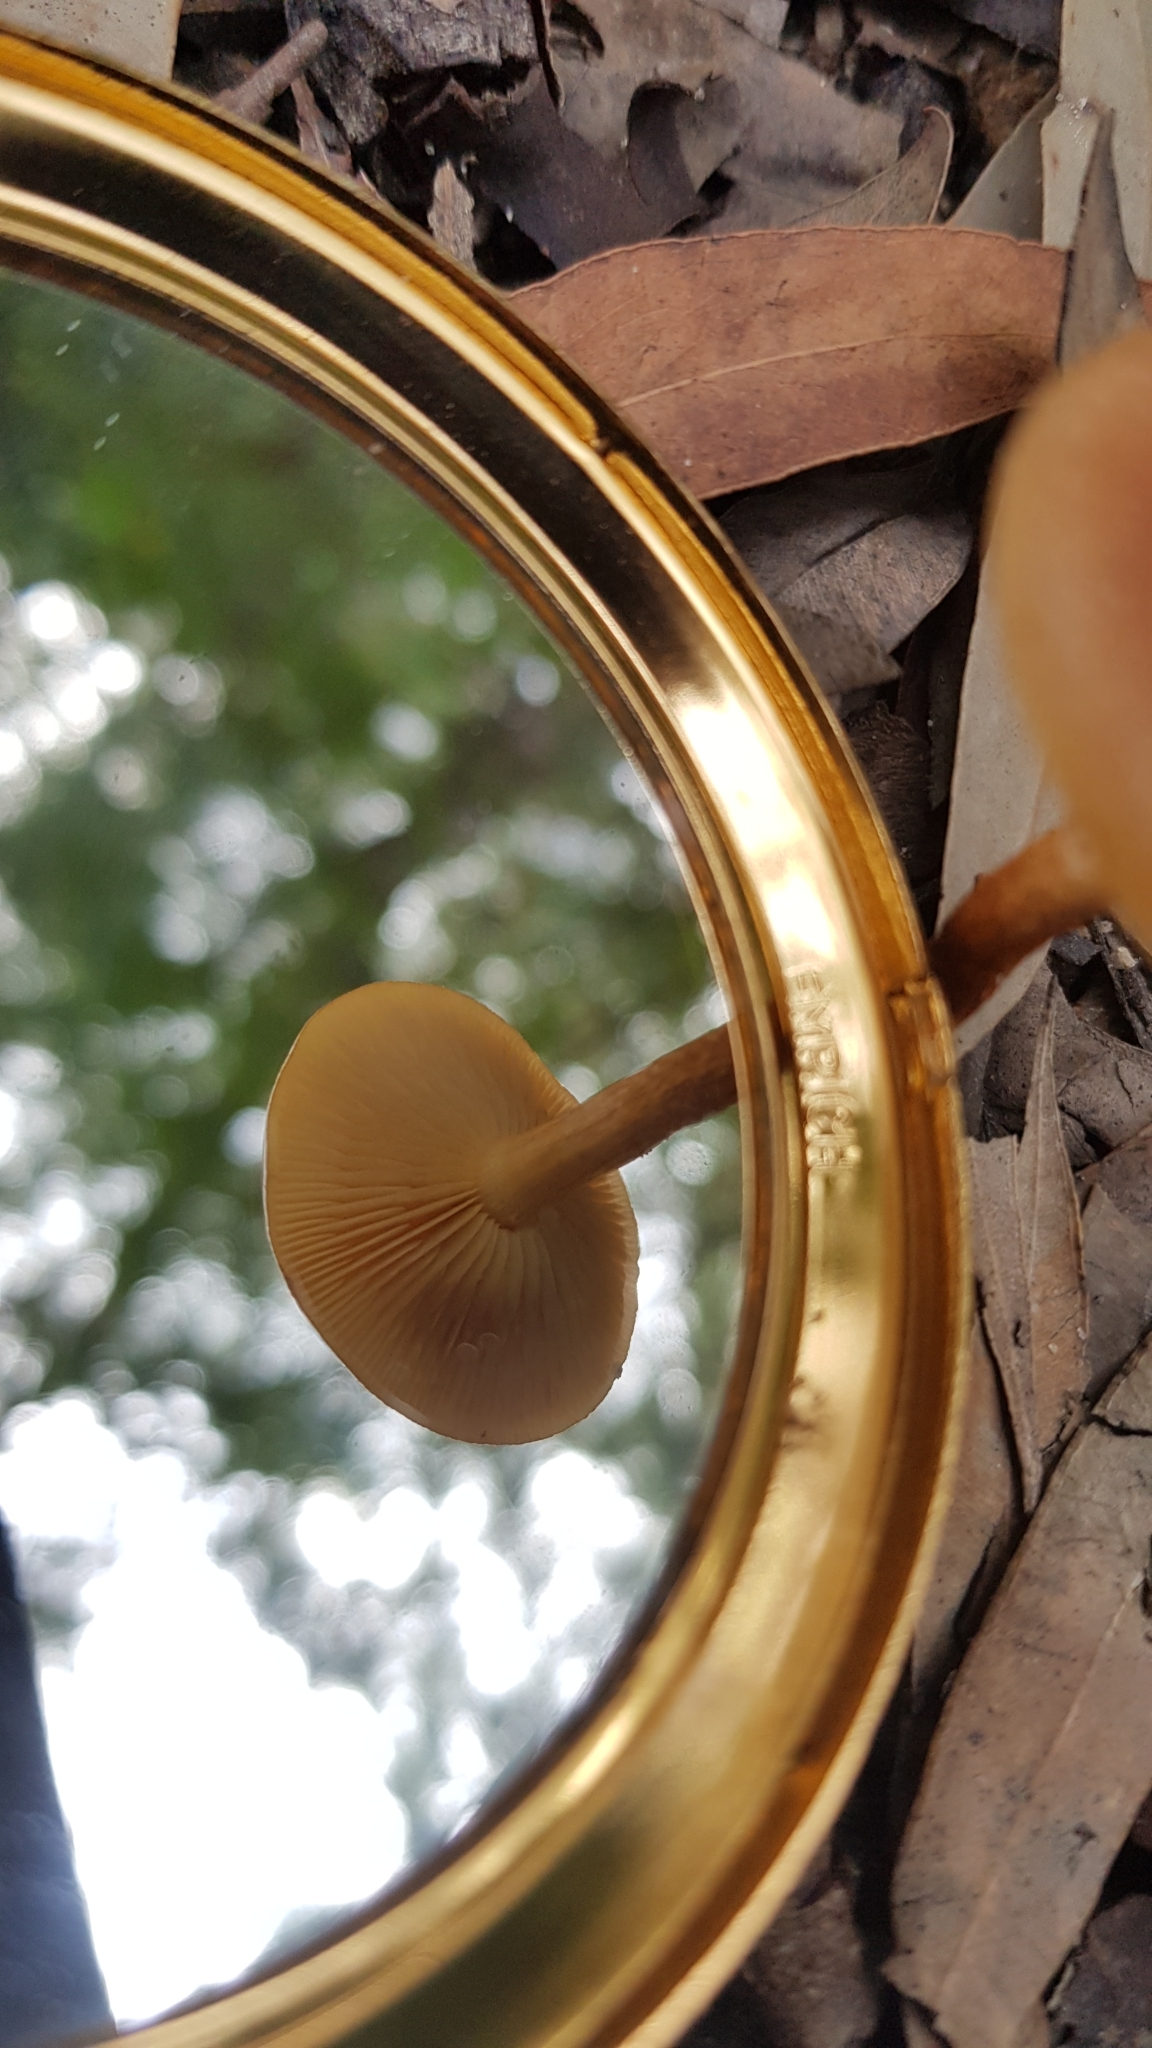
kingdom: Fungi
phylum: Basidiomycota
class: Agaricomycetes
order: Agaricales
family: Strophariaceae
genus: Pholiota
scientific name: Pholiota communis
